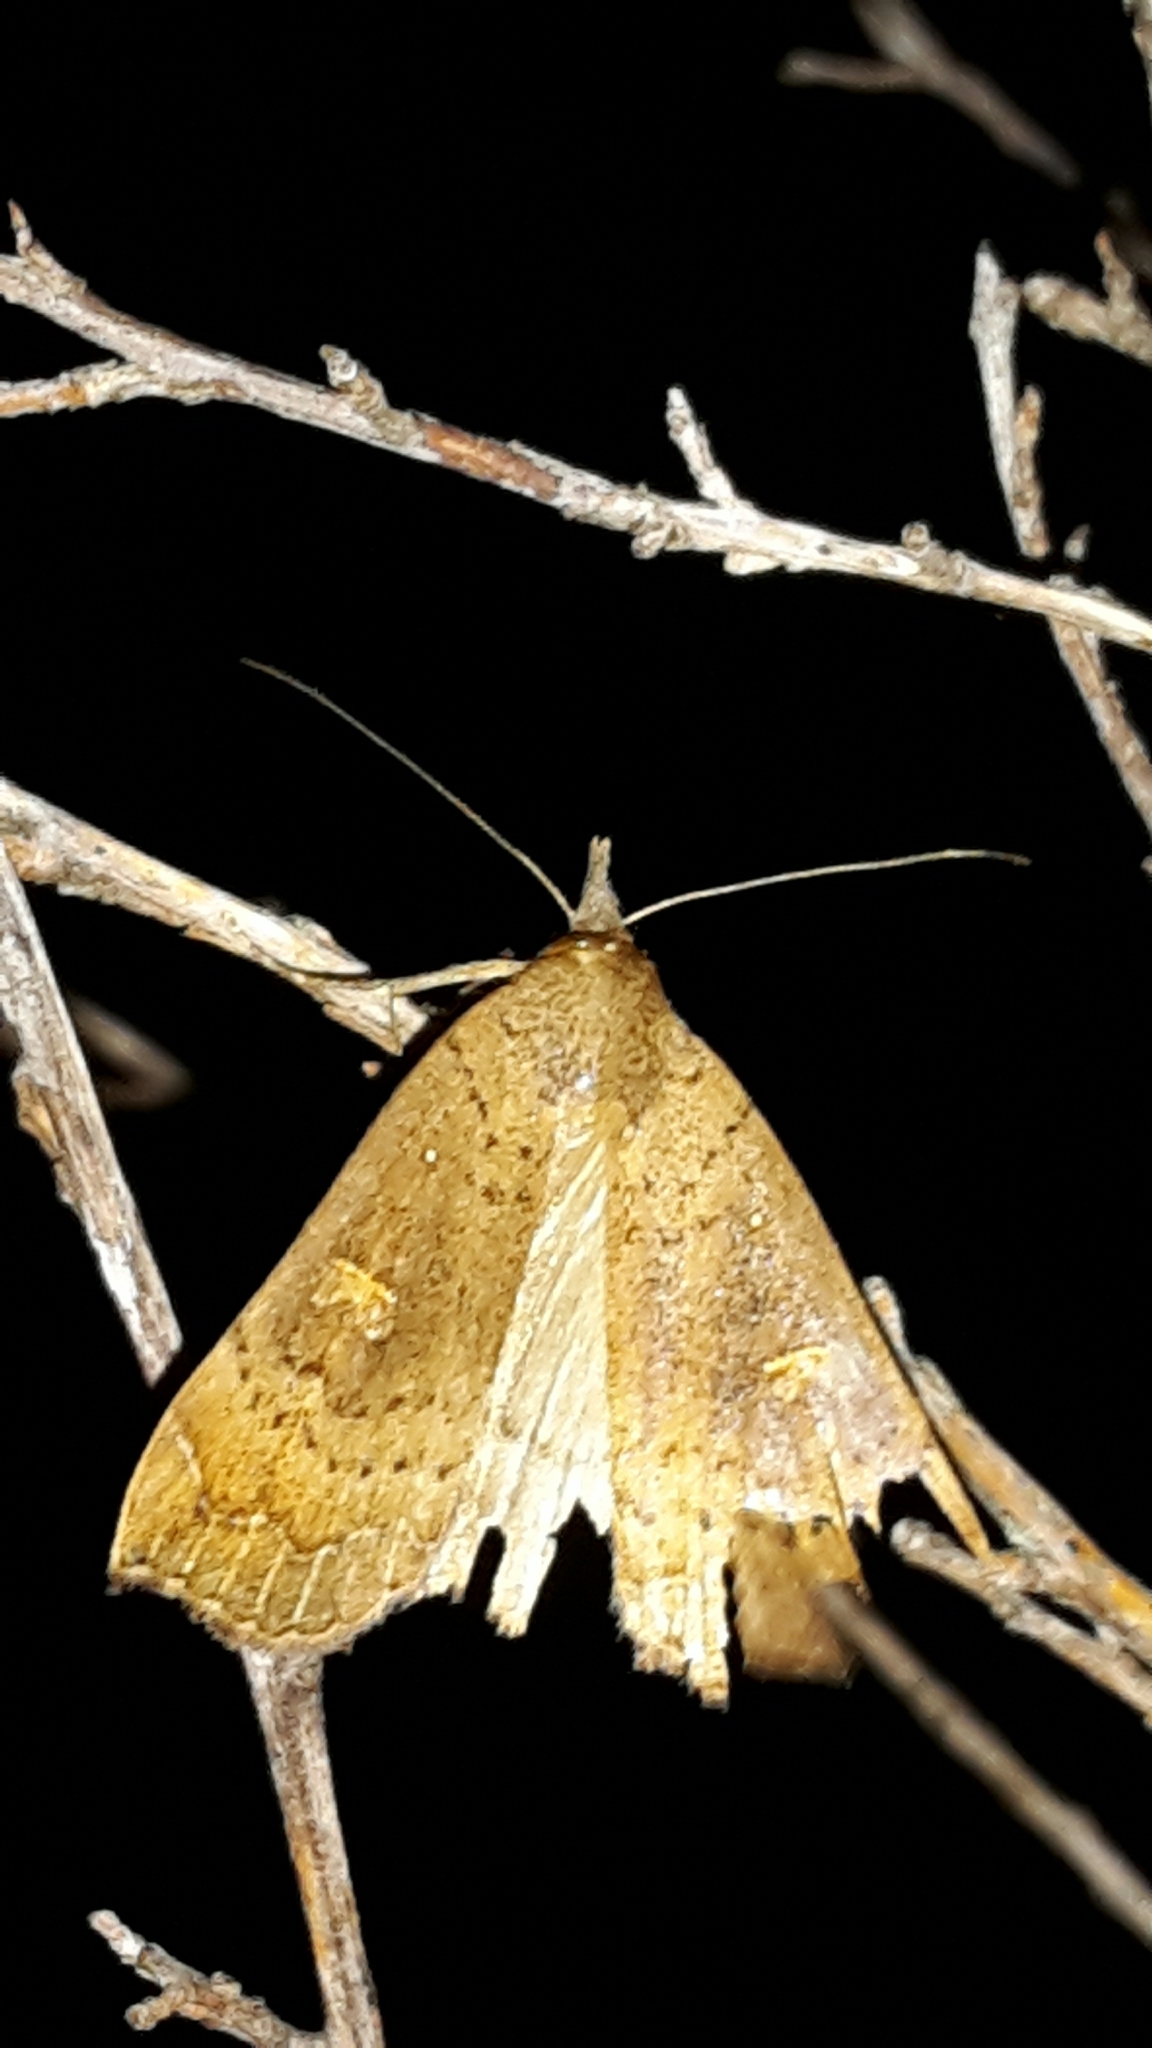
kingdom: Animalia
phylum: Arthropoda
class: Insecta
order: Lepidoptera
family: Erebidae
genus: Rhapsa
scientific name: Rhapsa scotosialis
